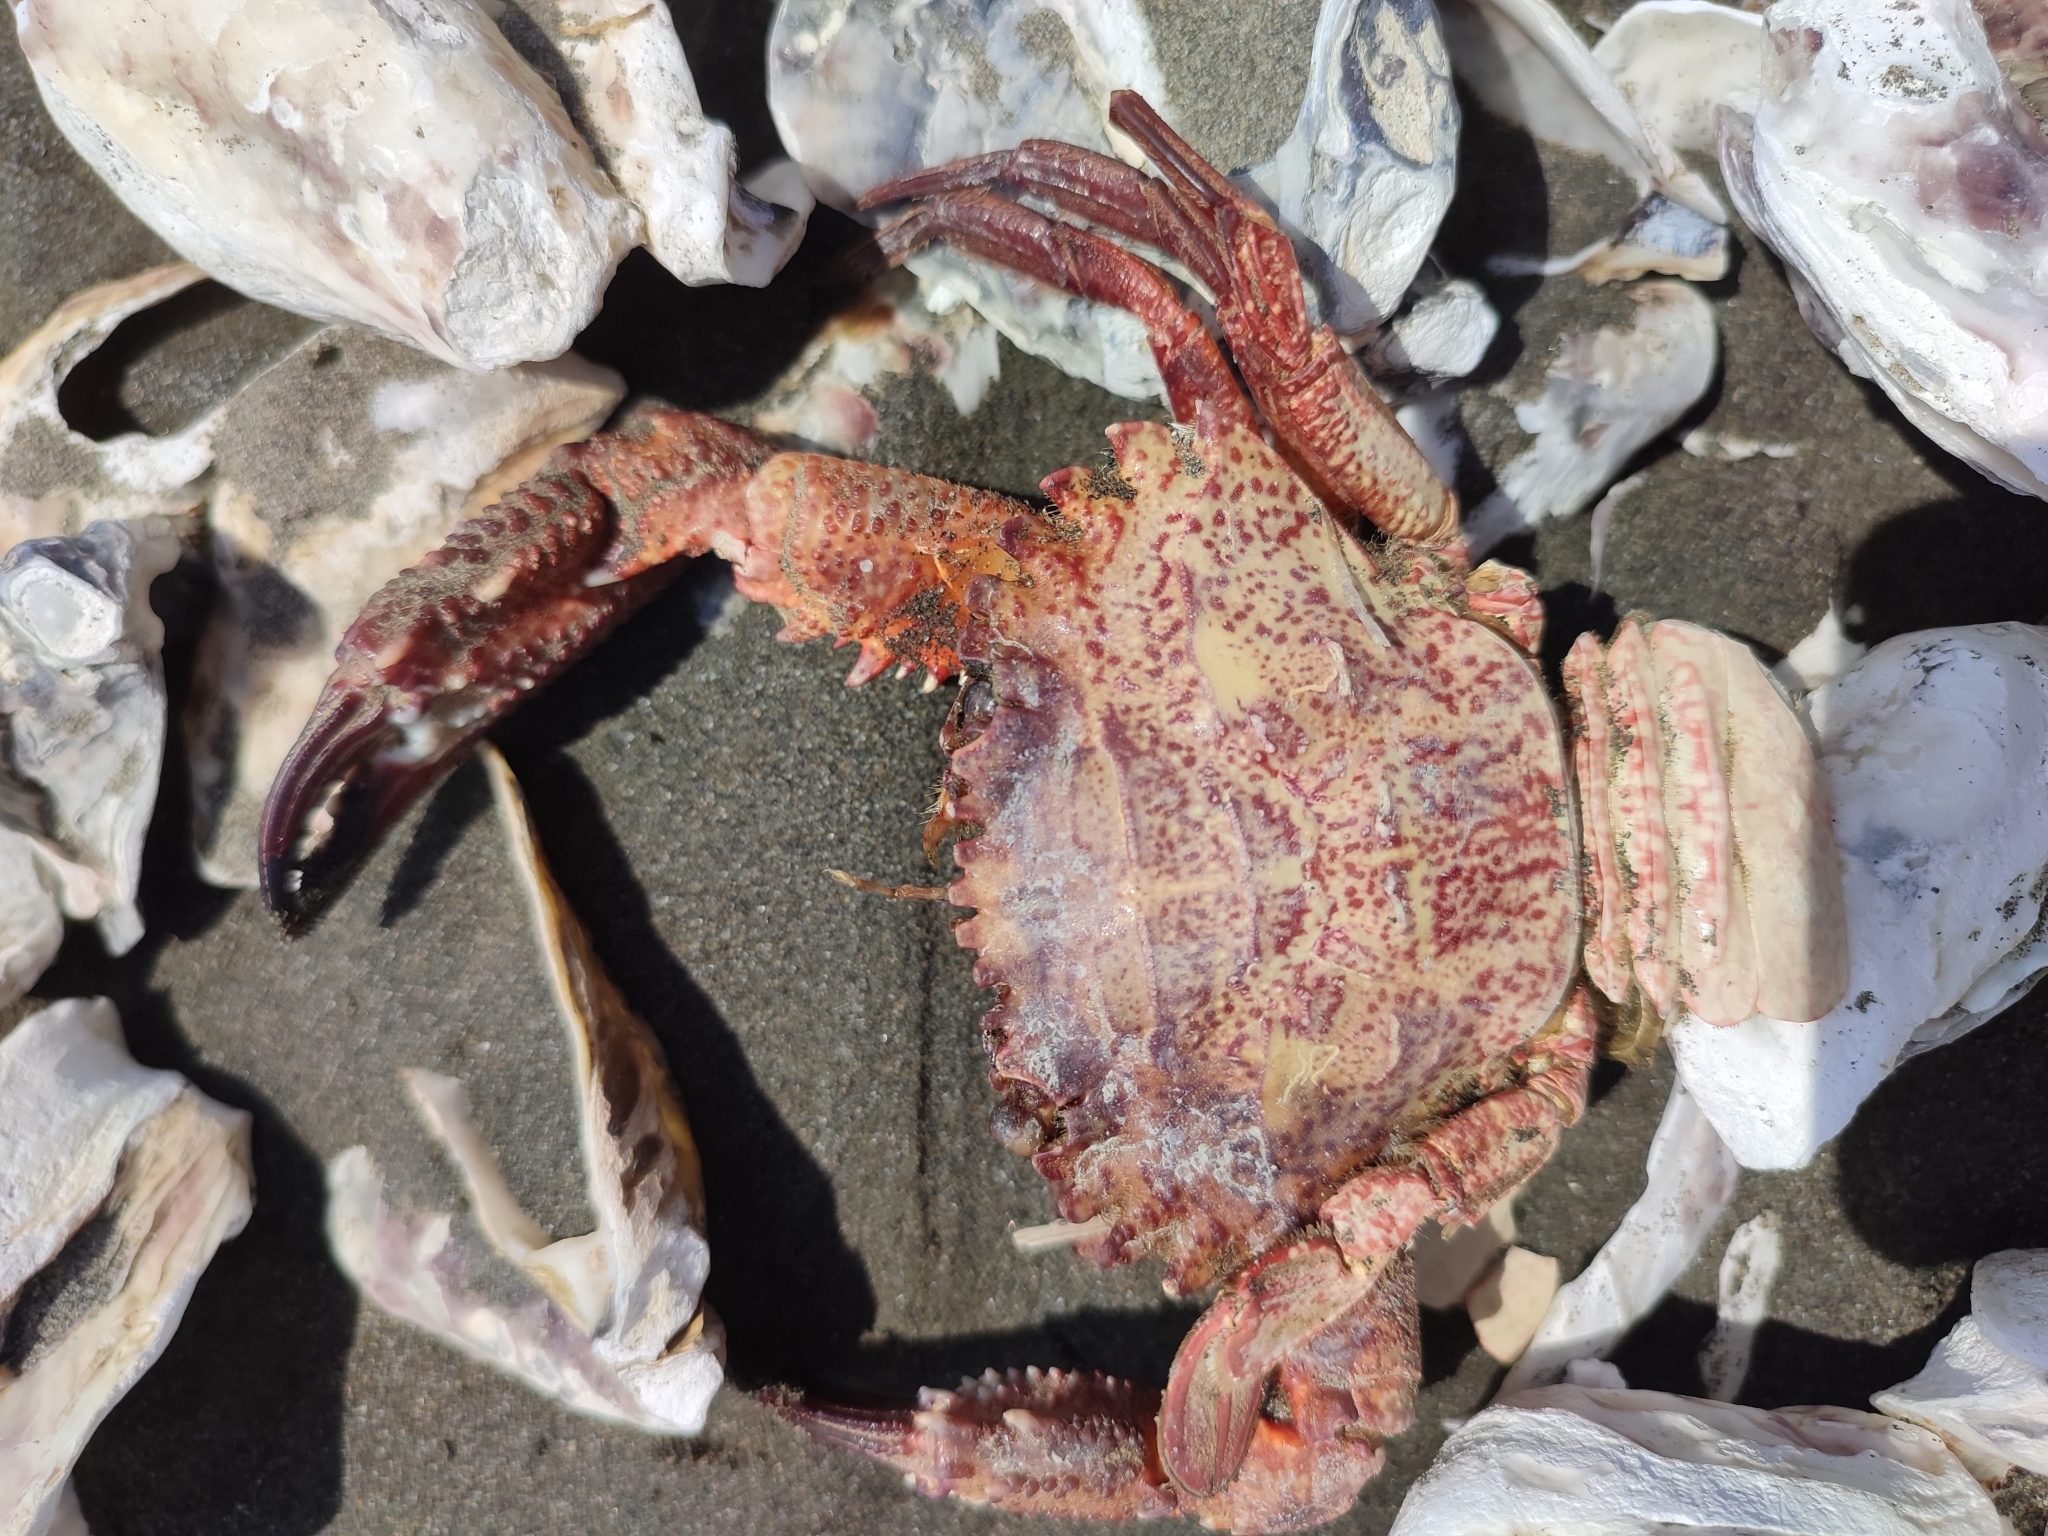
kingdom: Animalia
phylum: Arthropoda
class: Malacostraca
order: Decapoda
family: Portunidae
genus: Charybdis
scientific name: Charybdis granulata
